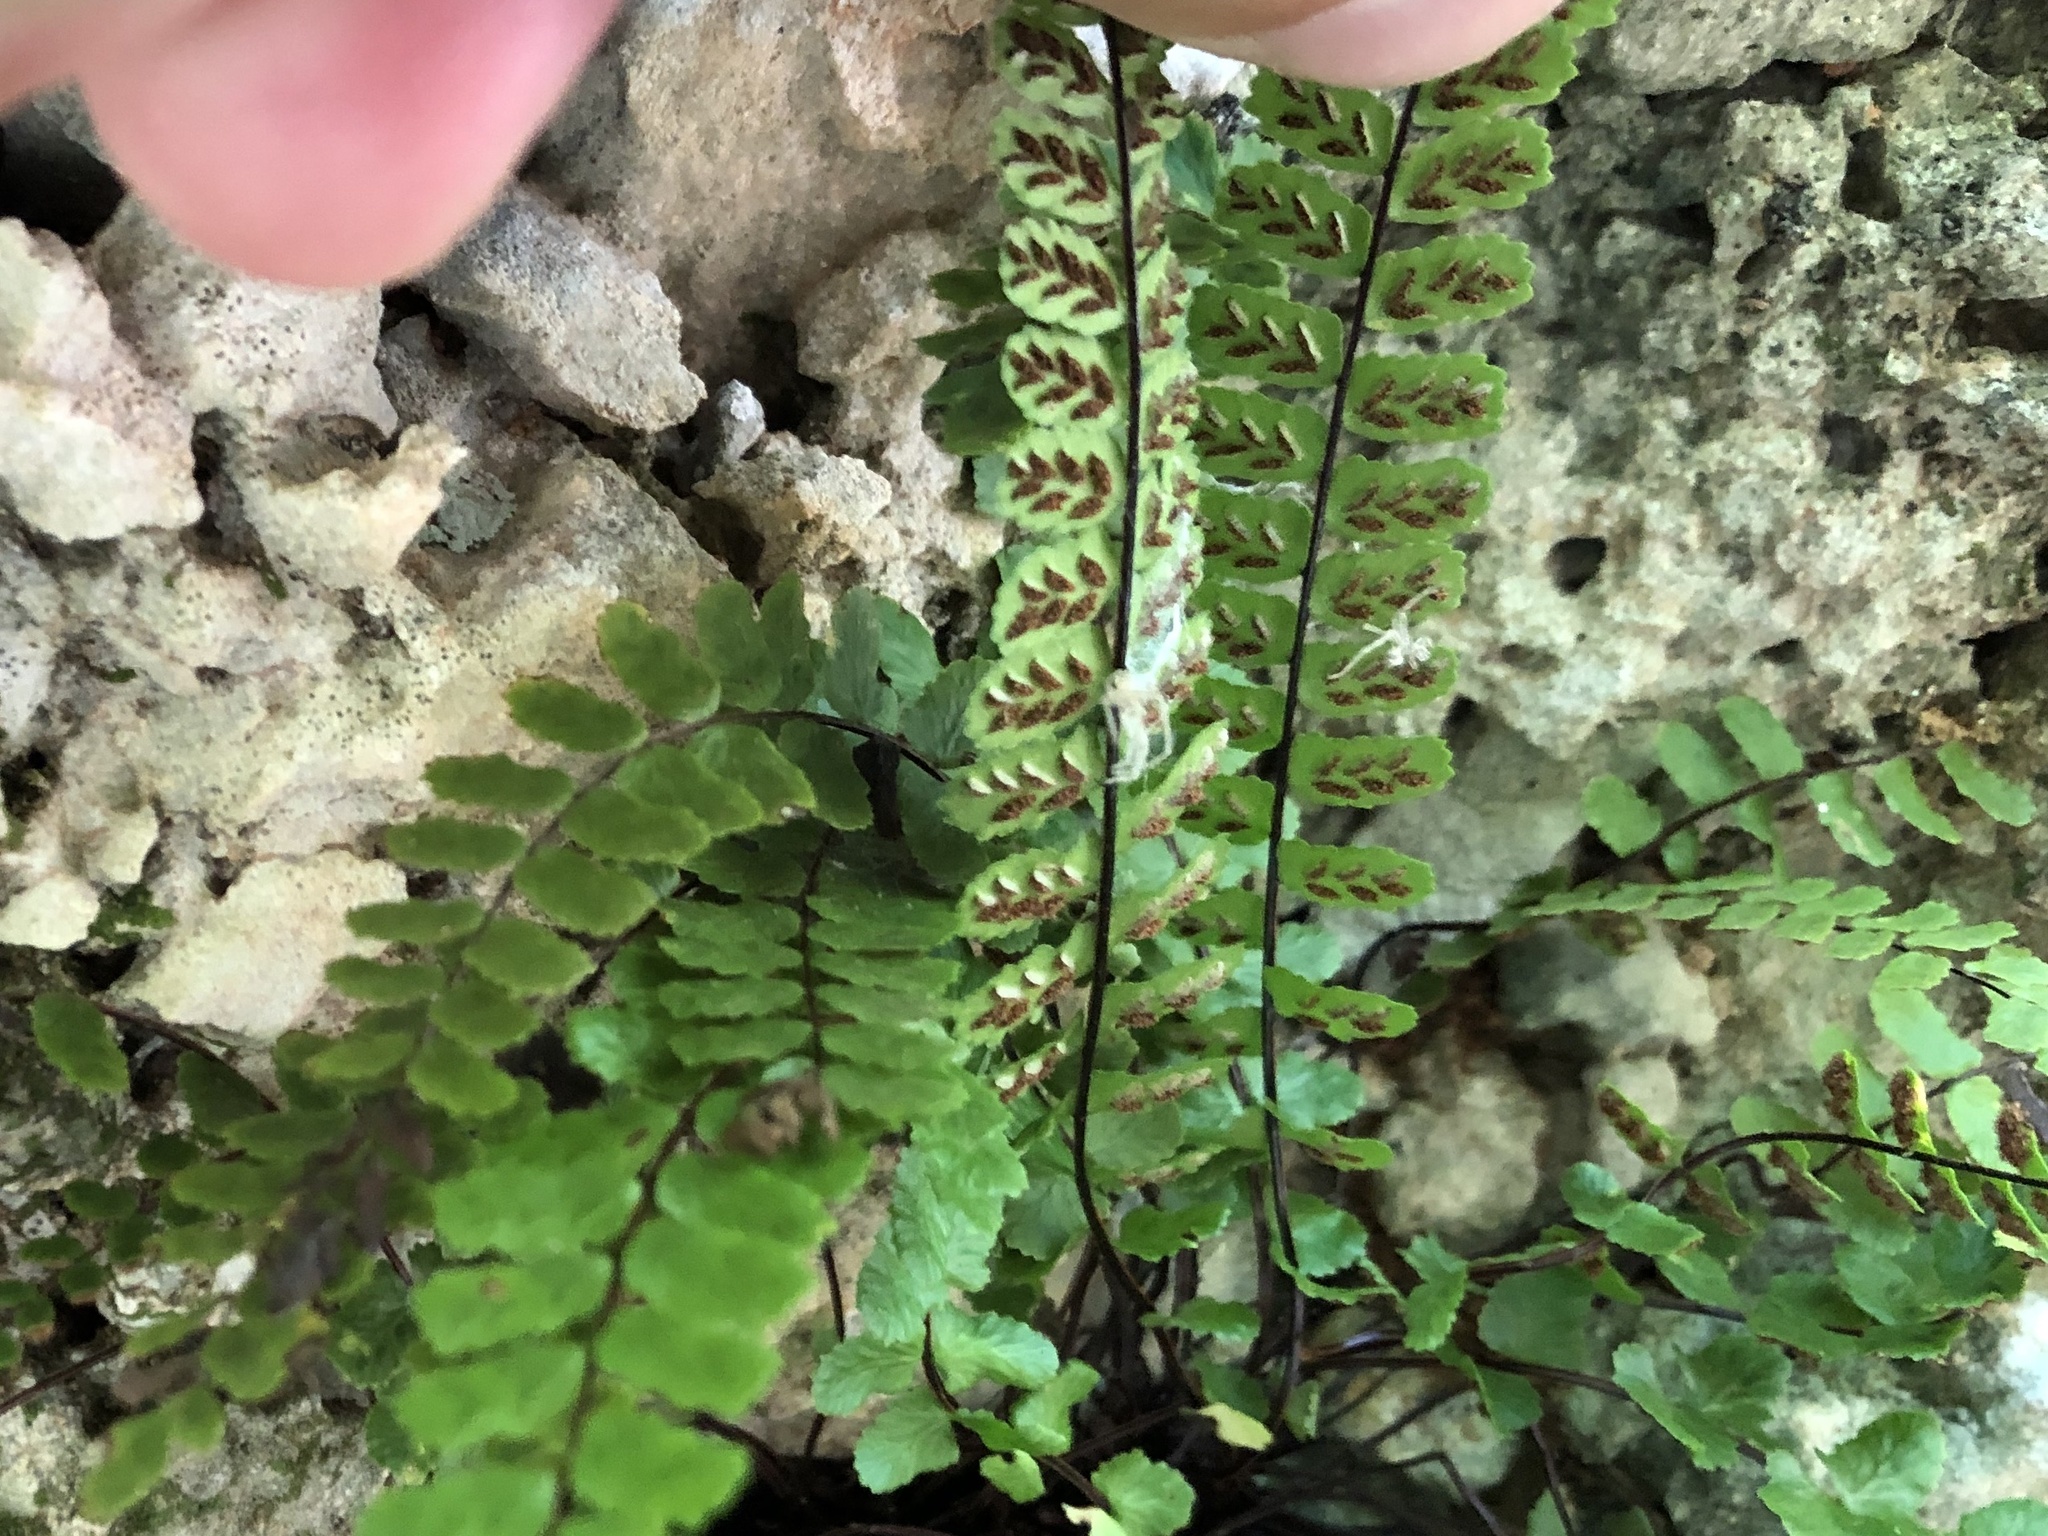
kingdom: Plantae
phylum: Tracheophyta
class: Polypodiopsida
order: Polypodiales
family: Aspleniaceae
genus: Asplenium
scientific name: Asplenium trichomanes
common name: Maidenhair spleenwort
